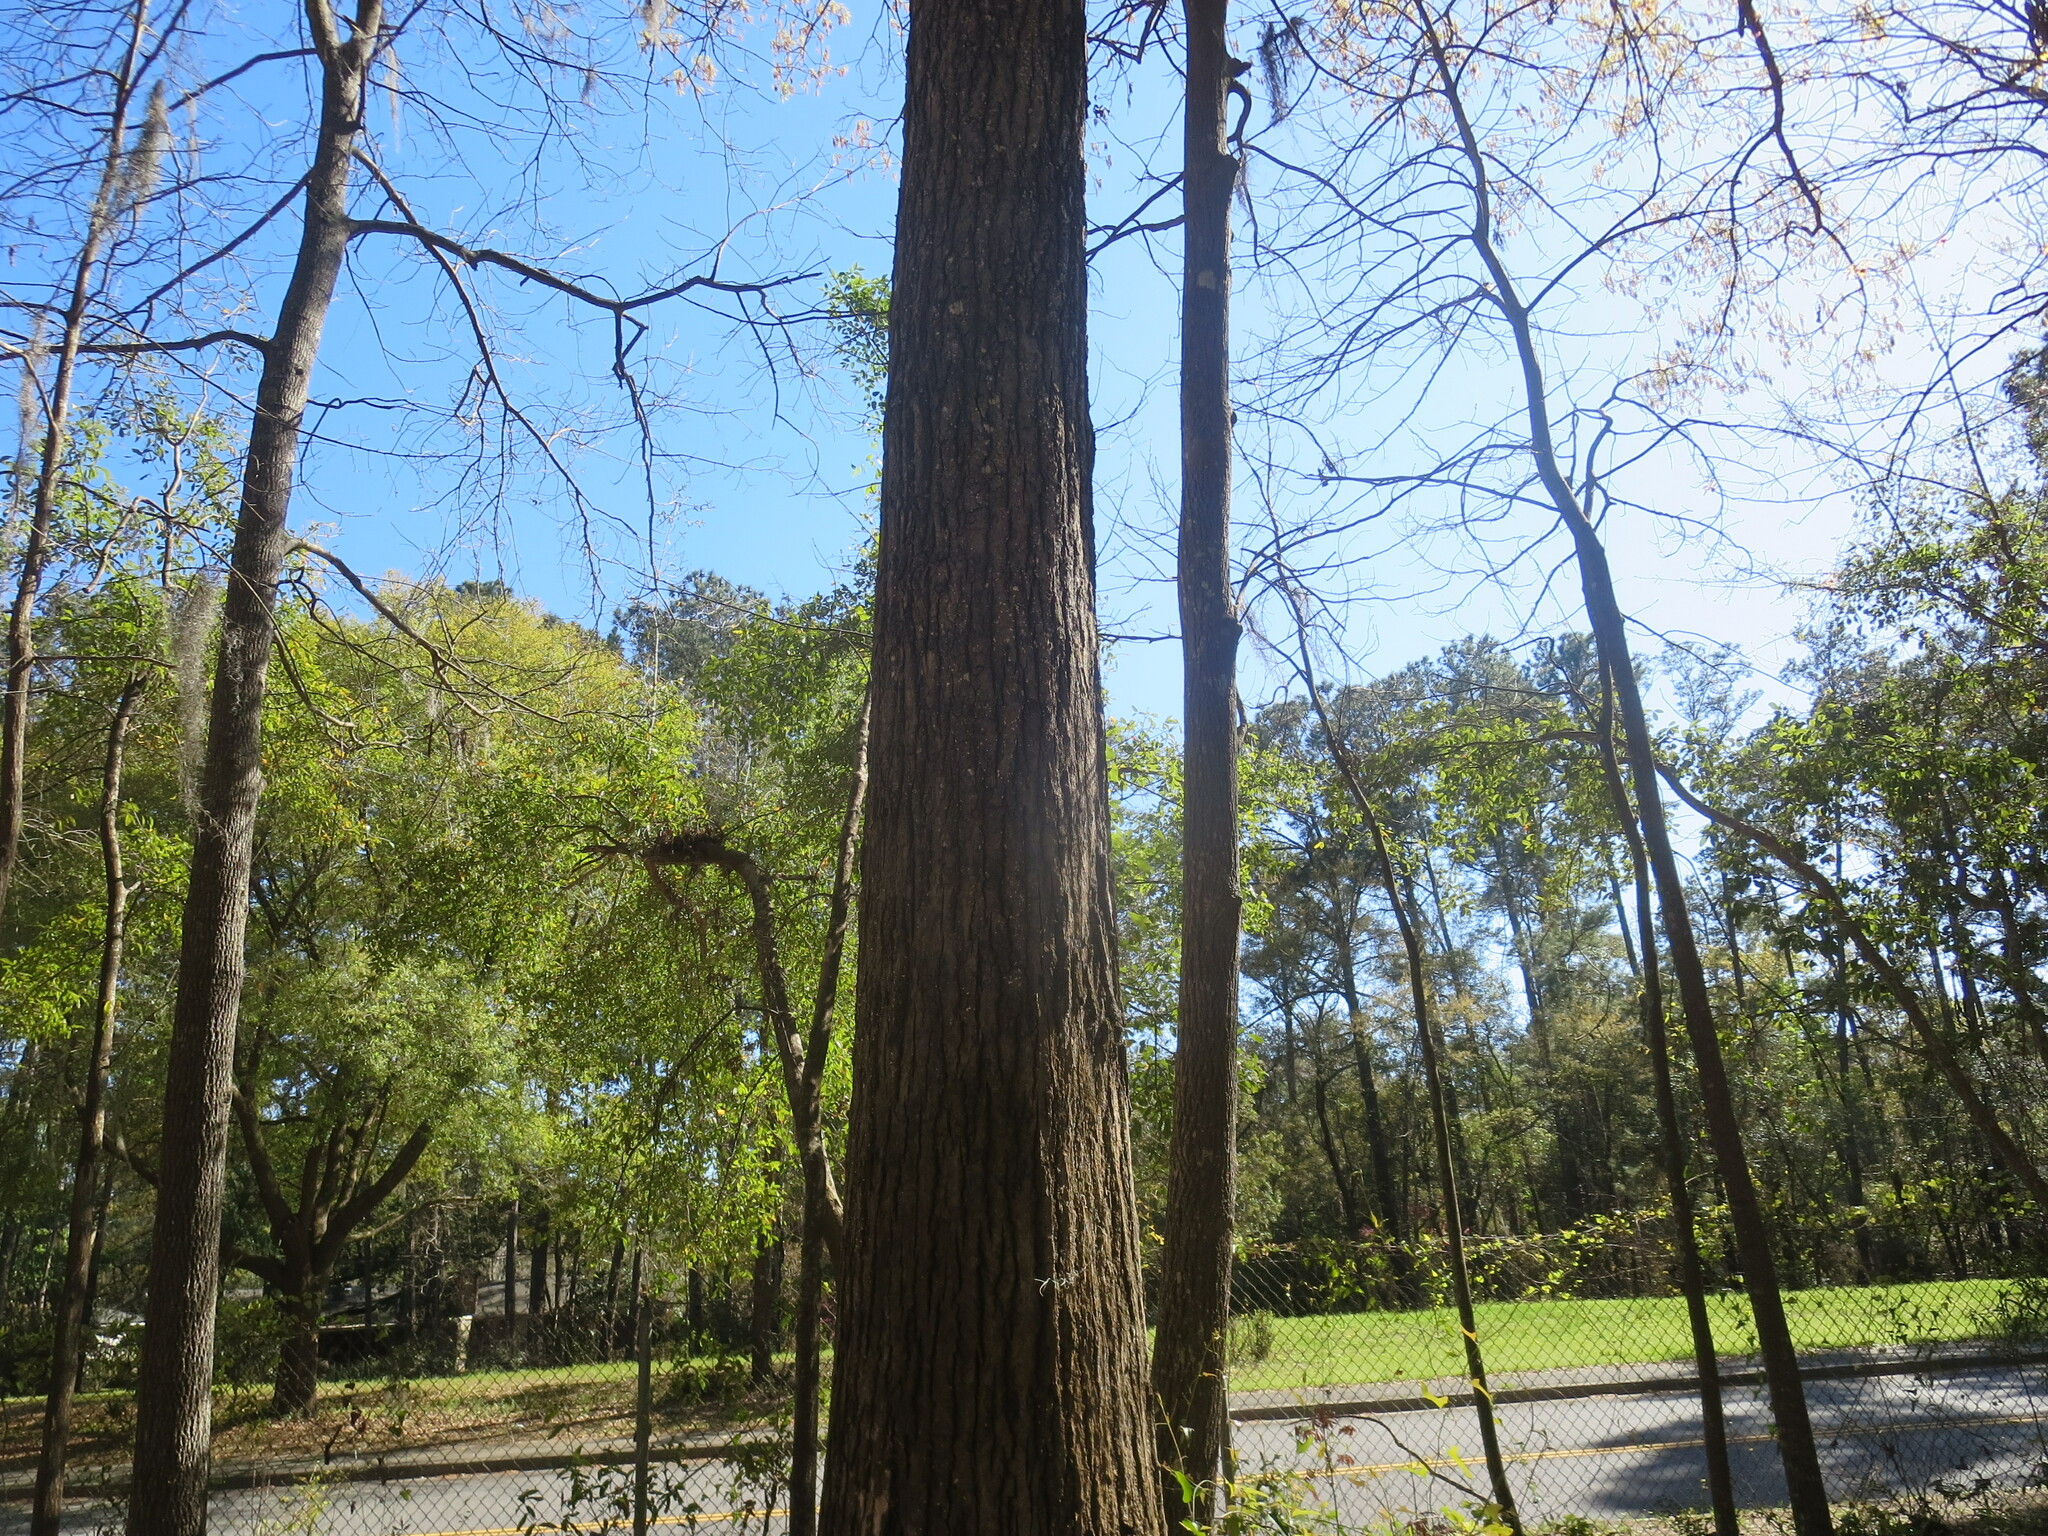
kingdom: Plantae
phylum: Tracheophyta
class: Magnoliopsida
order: Fagales
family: Fagaceae
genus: Quercus
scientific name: Quercus falcata
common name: Southern red oak
